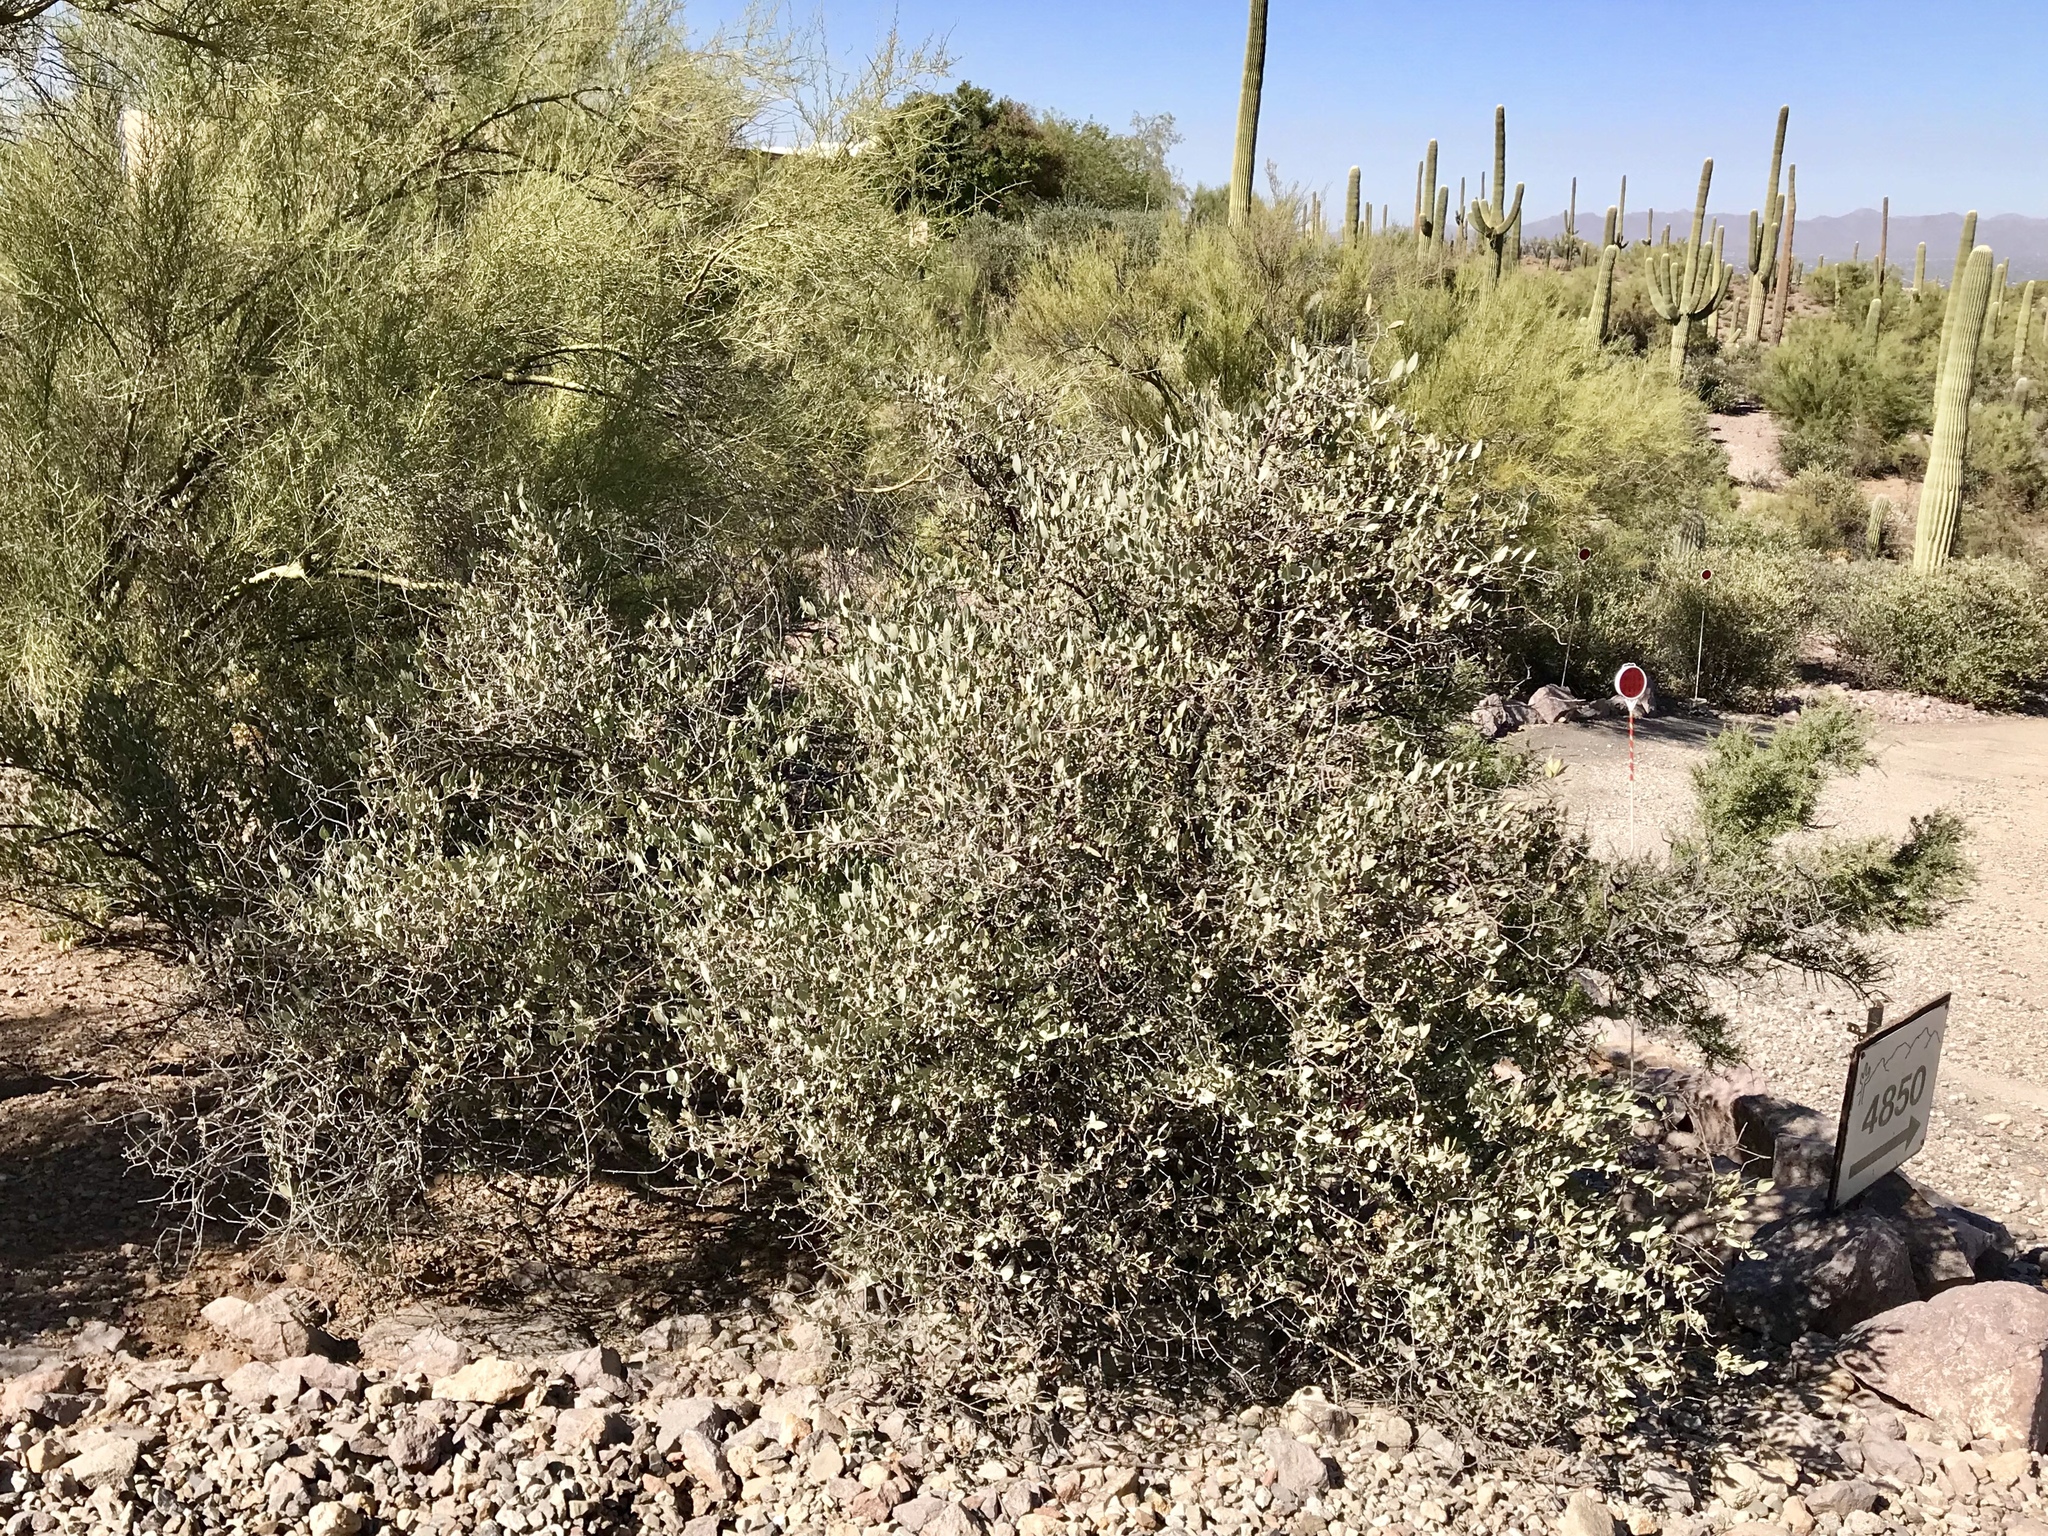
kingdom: Plantae
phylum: Tracheophyta
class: Magnoliopsida
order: Caryophyllales
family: Simmondsiaceae
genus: Simmondsia
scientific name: Simmondsia chinensis
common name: Jojoba
